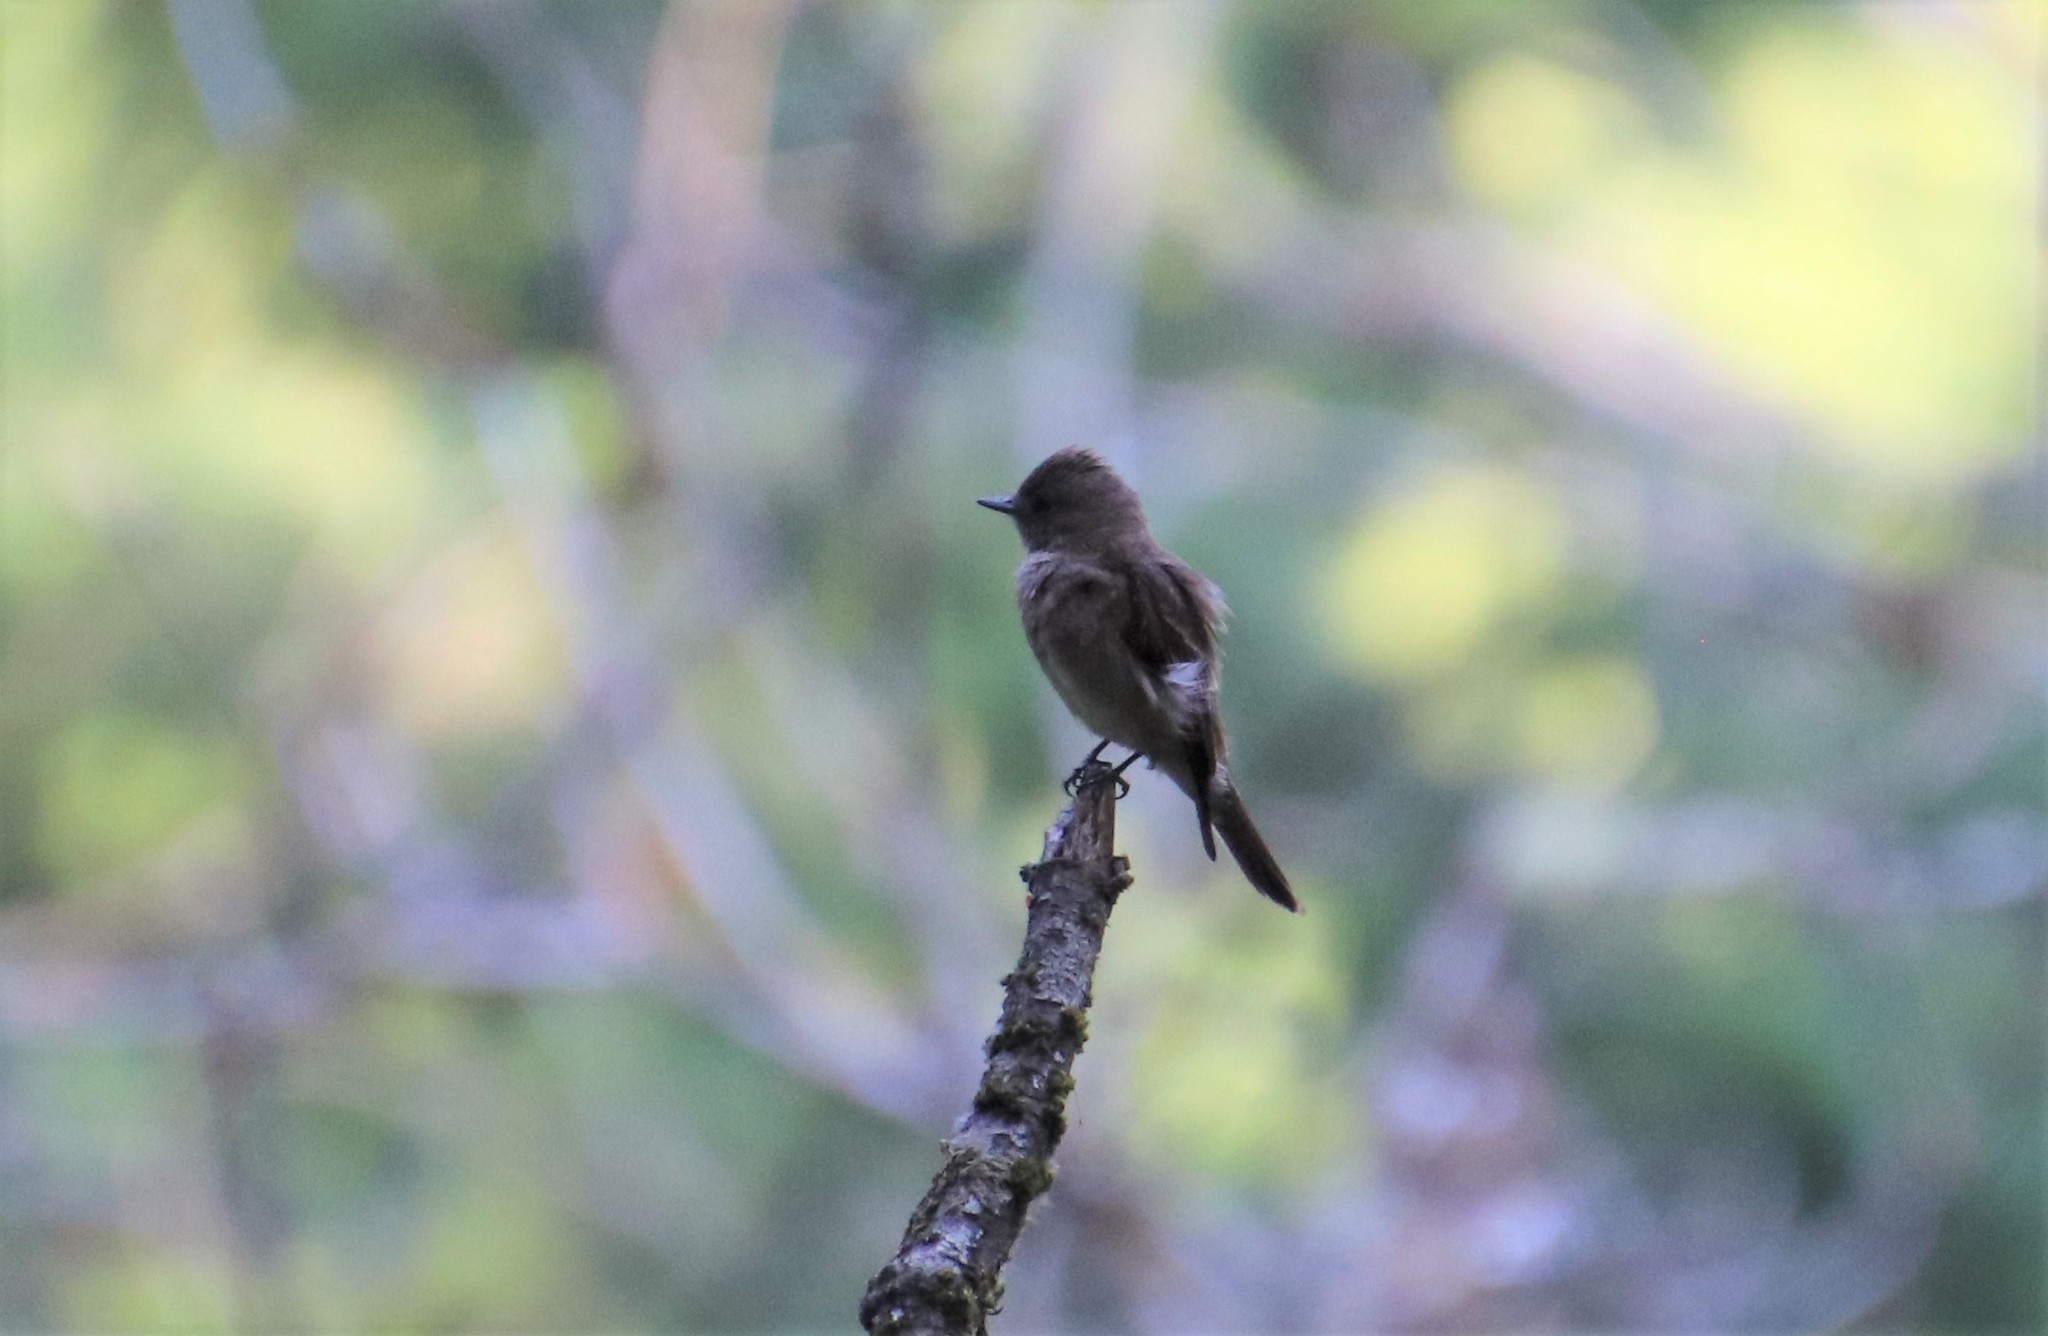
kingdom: Animalia
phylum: Chordata
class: Aves
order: Passeriformes
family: Tyrannidae
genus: Contopus
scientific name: Contopus sordidulus
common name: Western wood-pewee
